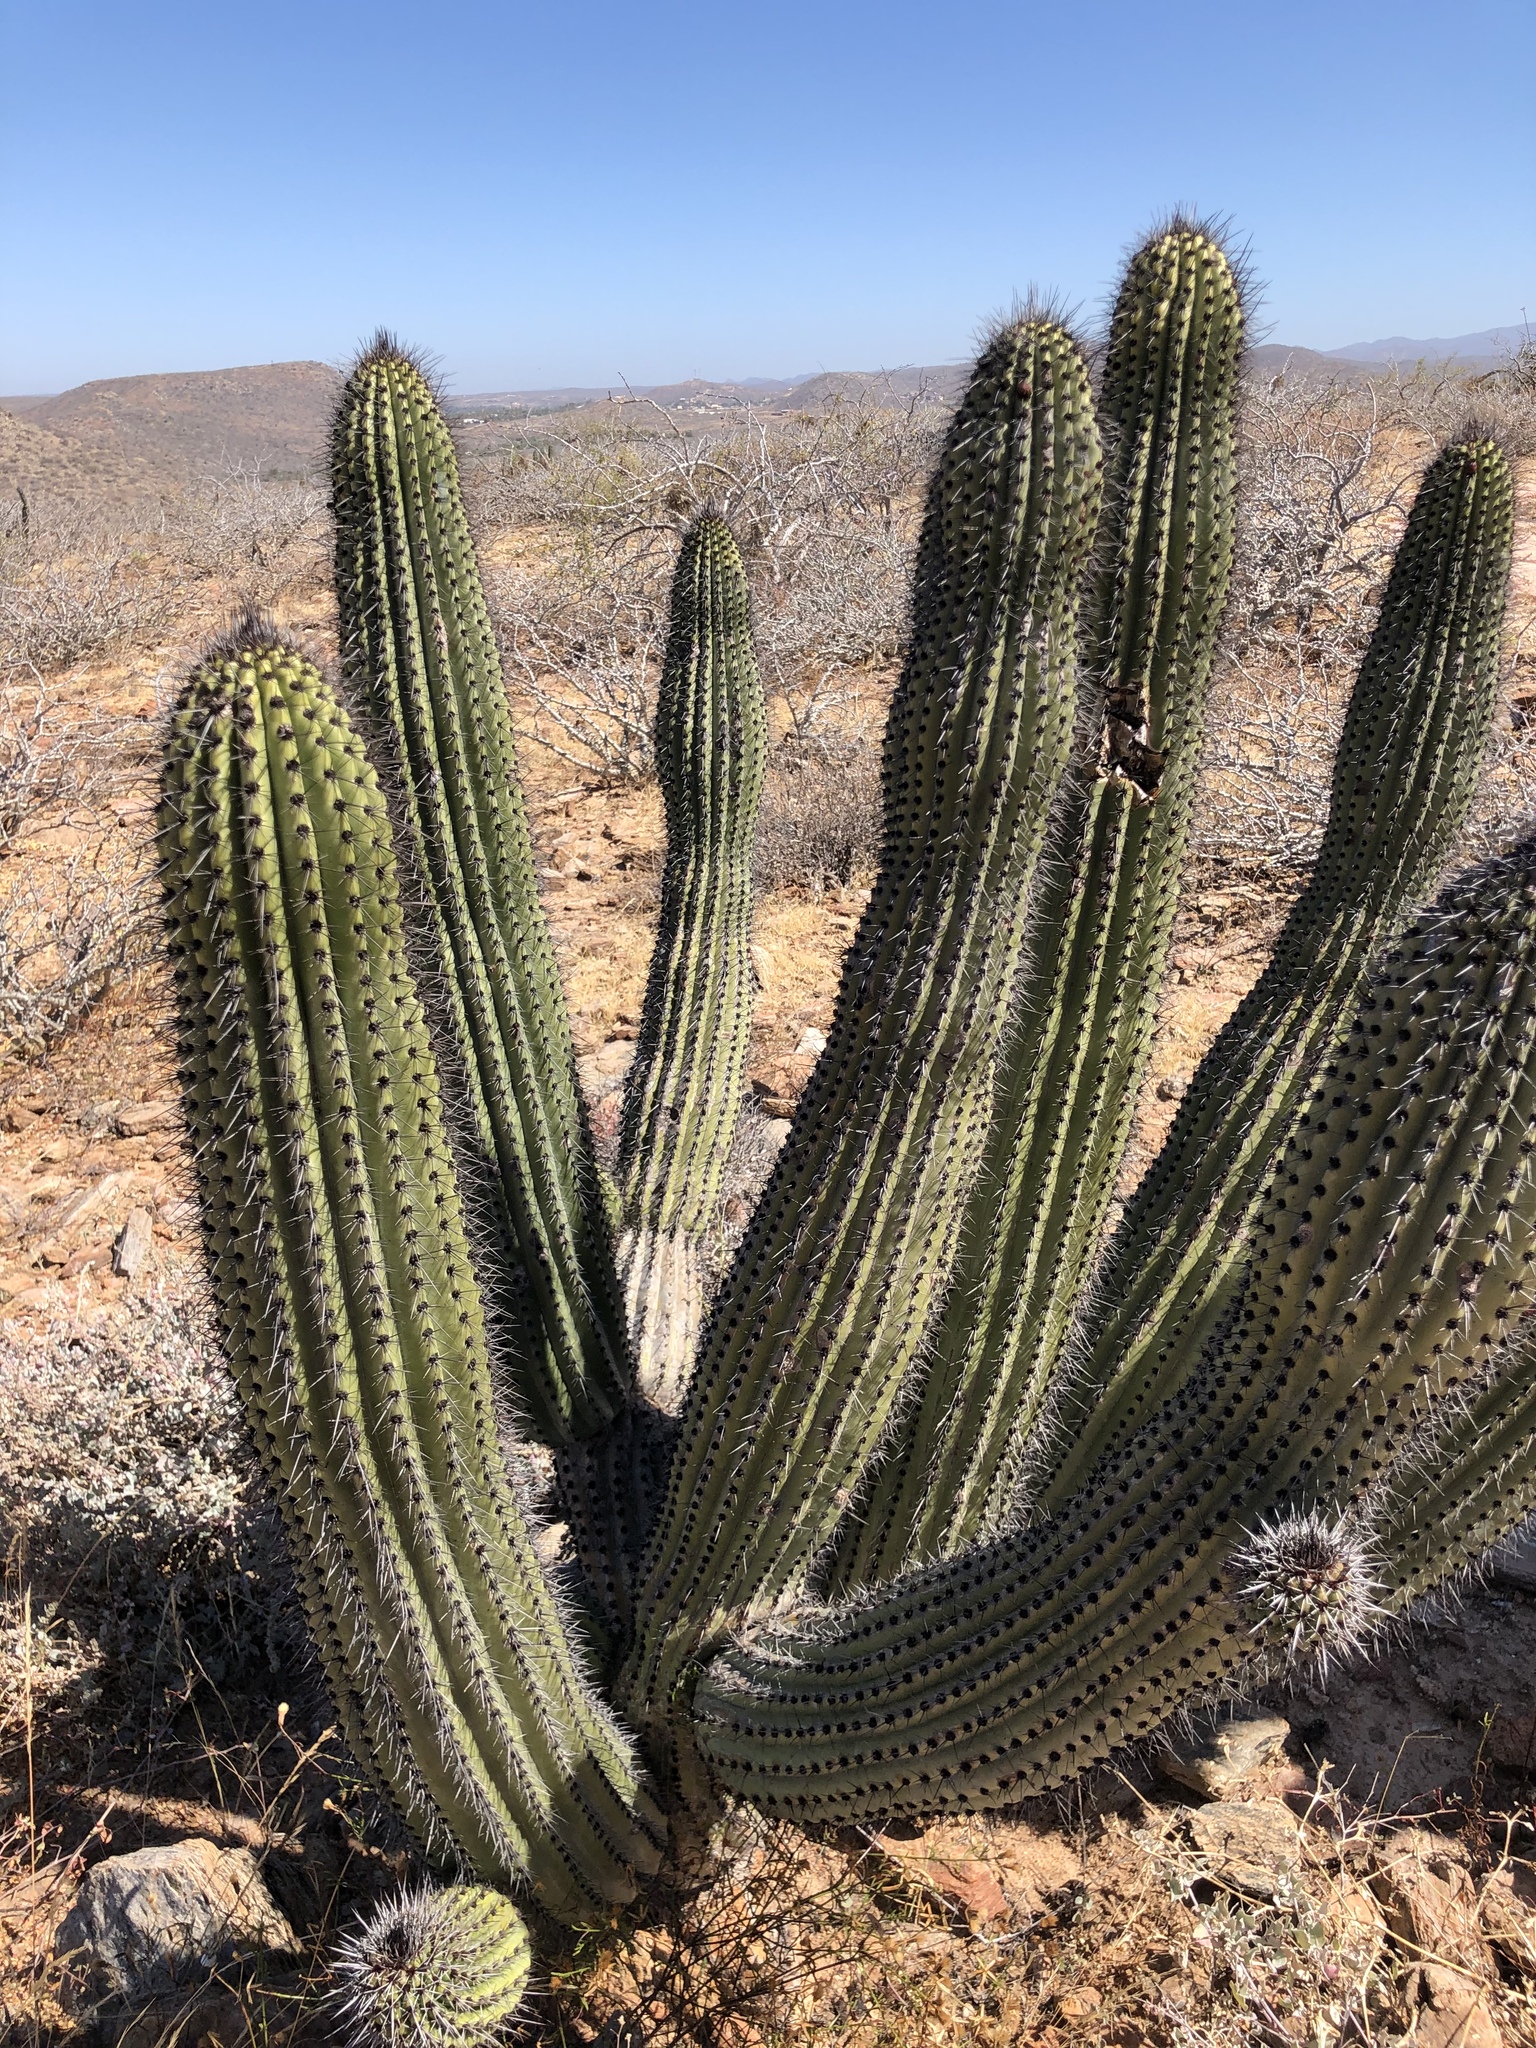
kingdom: Plantae
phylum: Tracheophyta
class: Magnoliopsida
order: Caryophyllales
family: Cactaceae
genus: Stenocereus
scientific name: Stenocereus thurberi
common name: Organ pipe cactus
